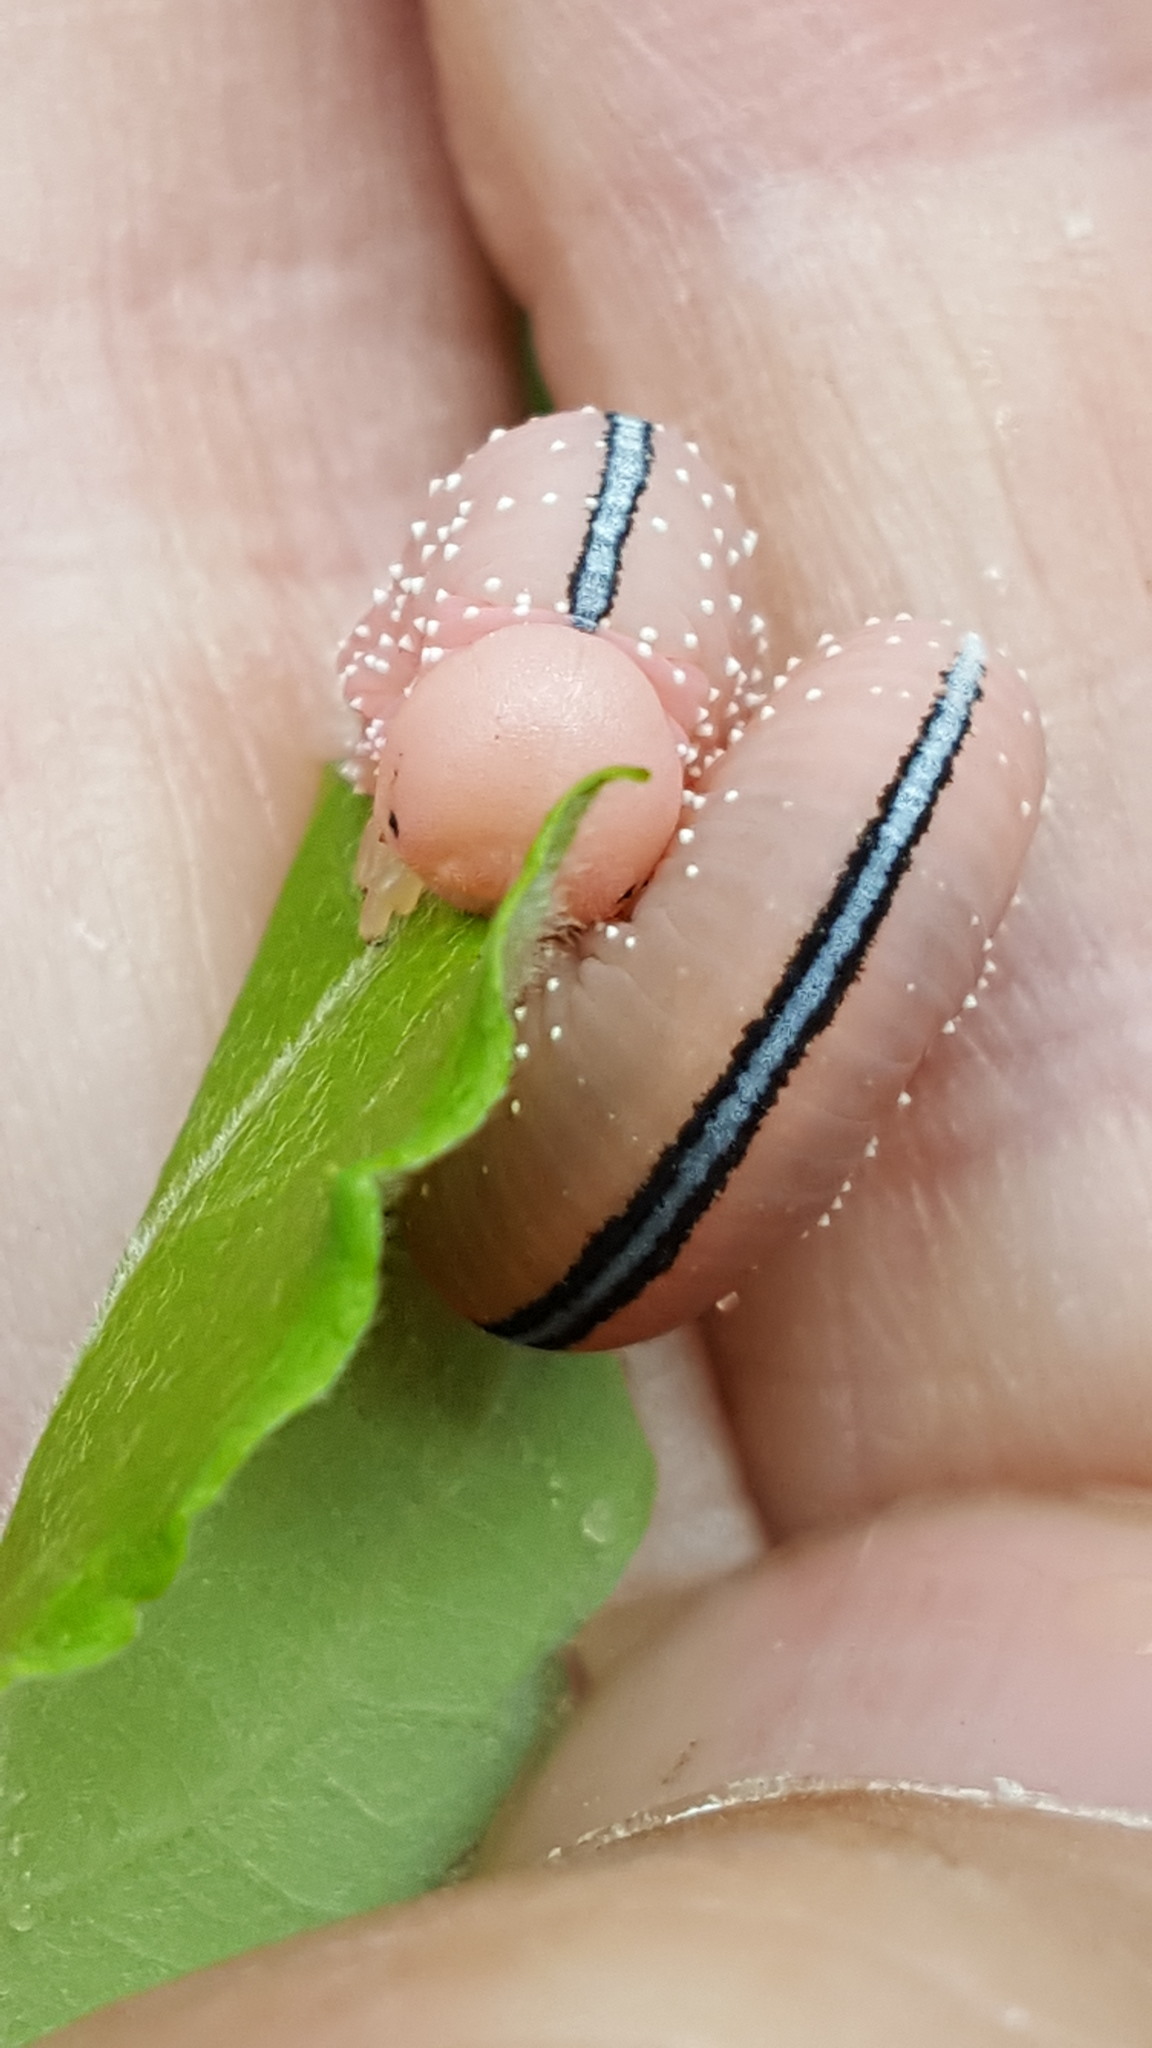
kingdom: Animalia
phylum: Arthropoda
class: Insecta
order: Hymenoptera
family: Cimbicidae
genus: Cimbex
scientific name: Cimbex americana
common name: Elm sawfly
